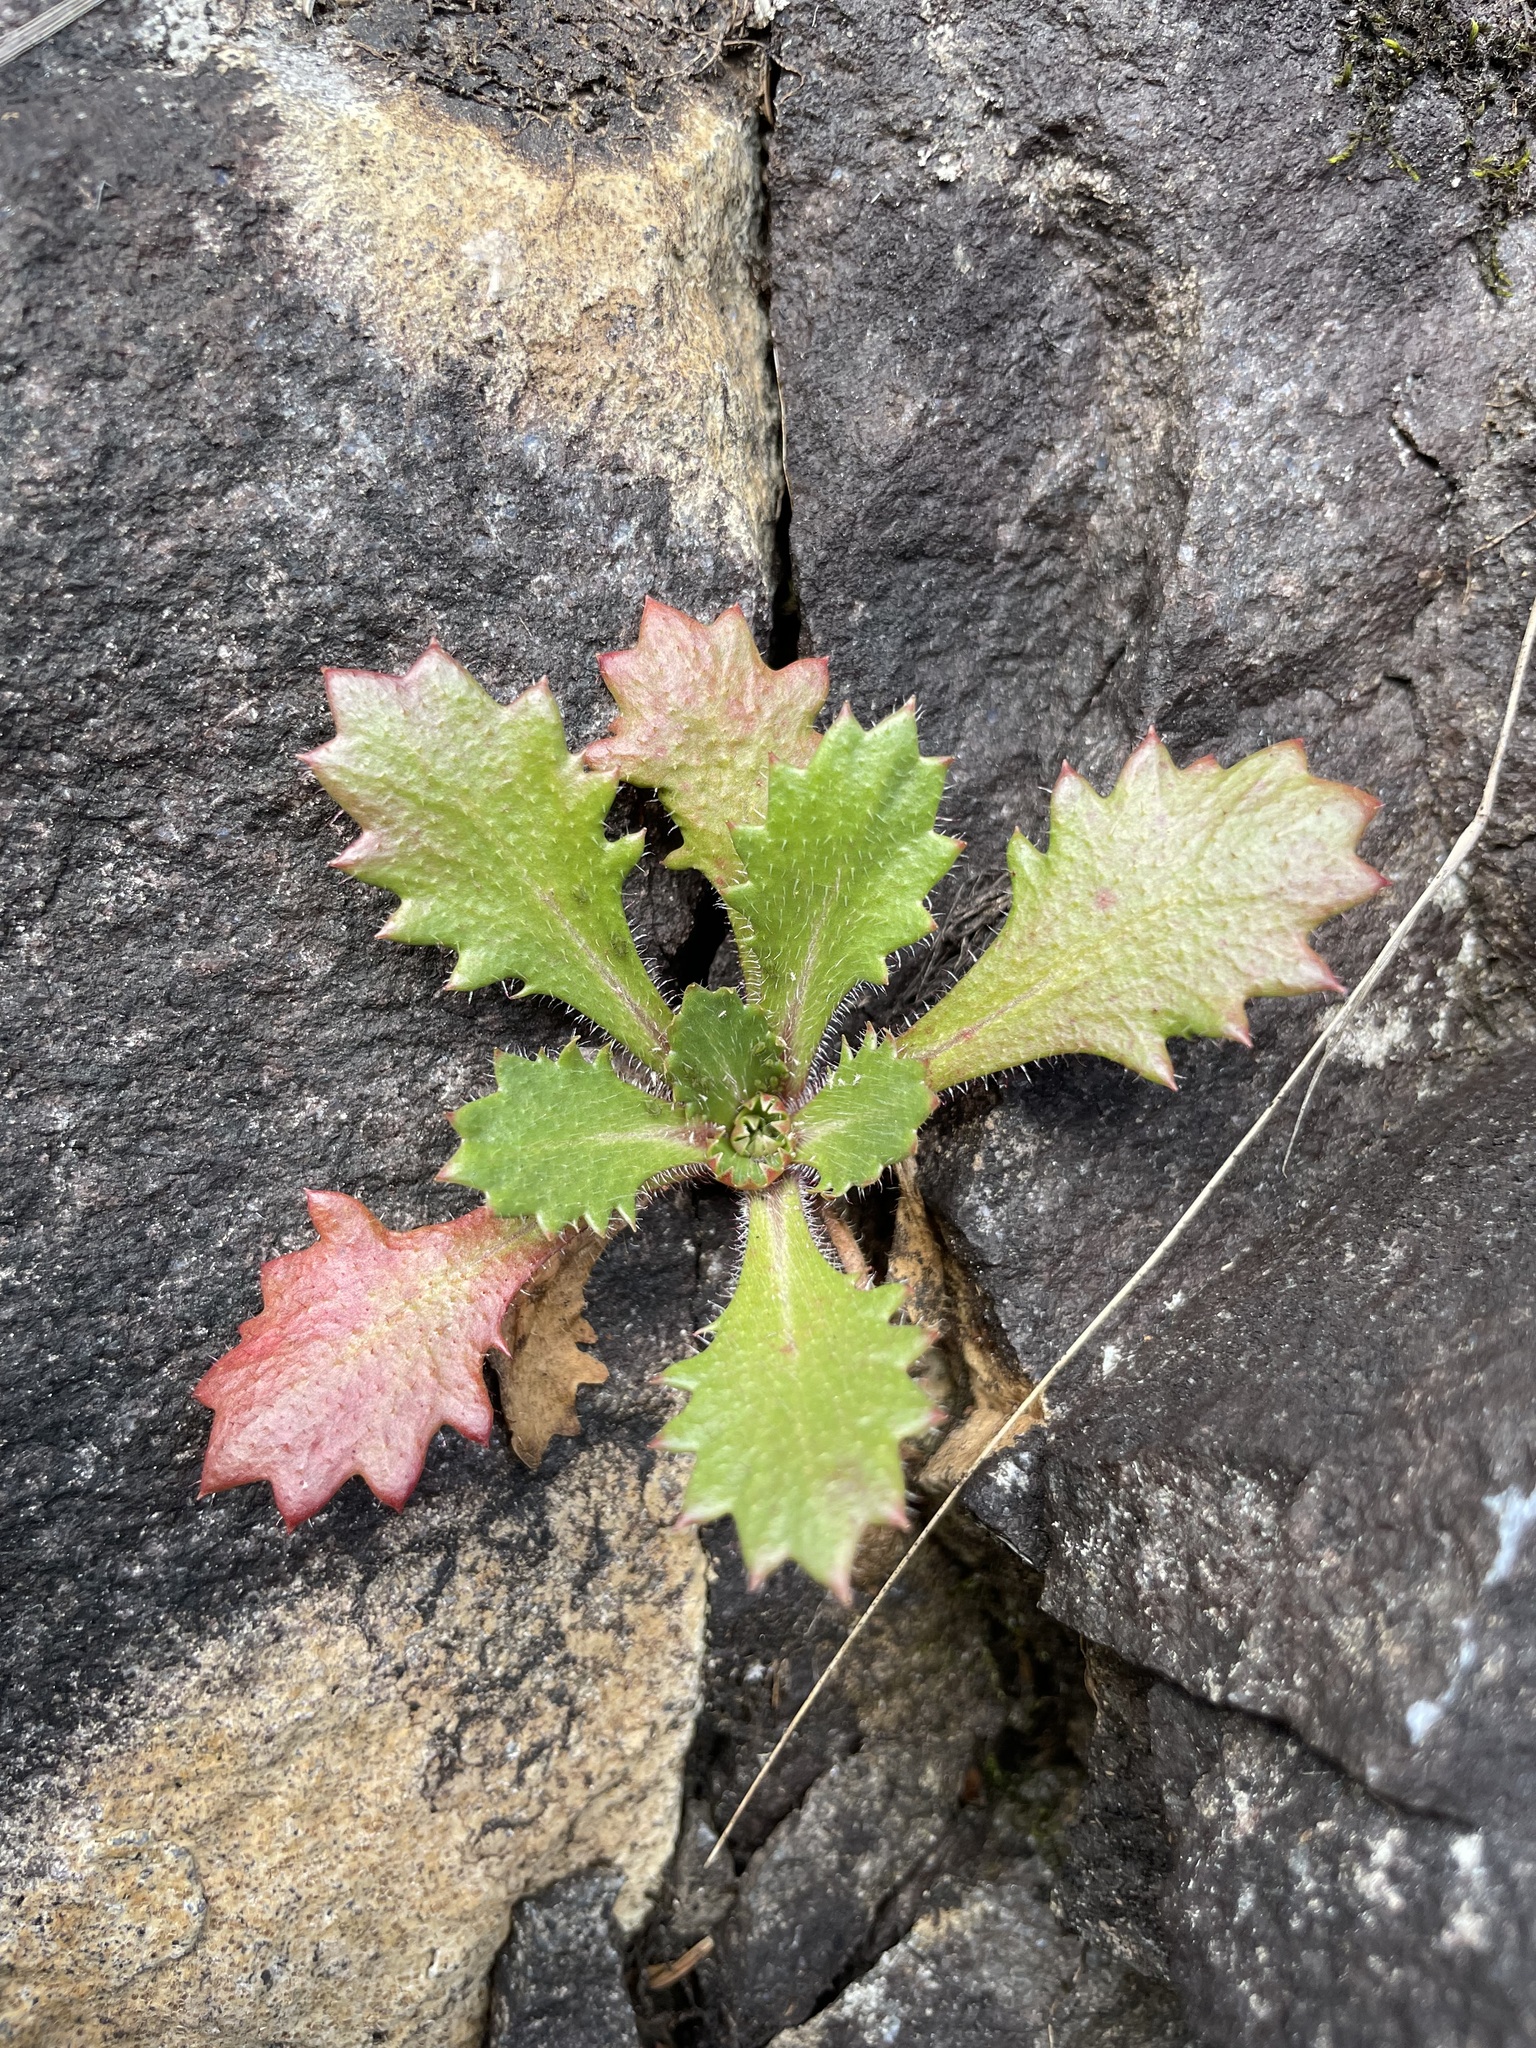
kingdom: Plantae
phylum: Tracheophyta
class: Magnoliopsida
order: Saxifragales
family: Saxifragaceae
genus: Micranthes
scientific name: Micranthes petiolaris
